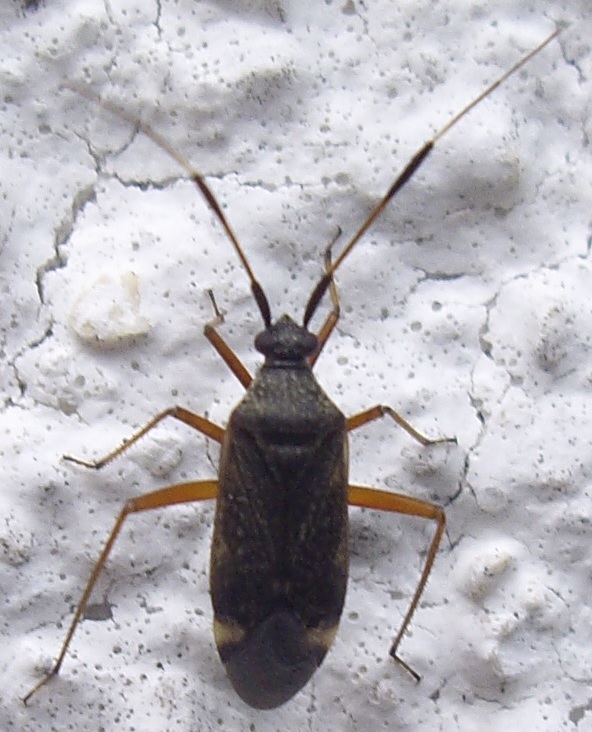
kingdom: Animalia
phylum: Arthropoda
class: Insecta
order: Hemiptera
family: Miridae
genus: Closterotomus
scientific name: Closterotomus biclavatus
